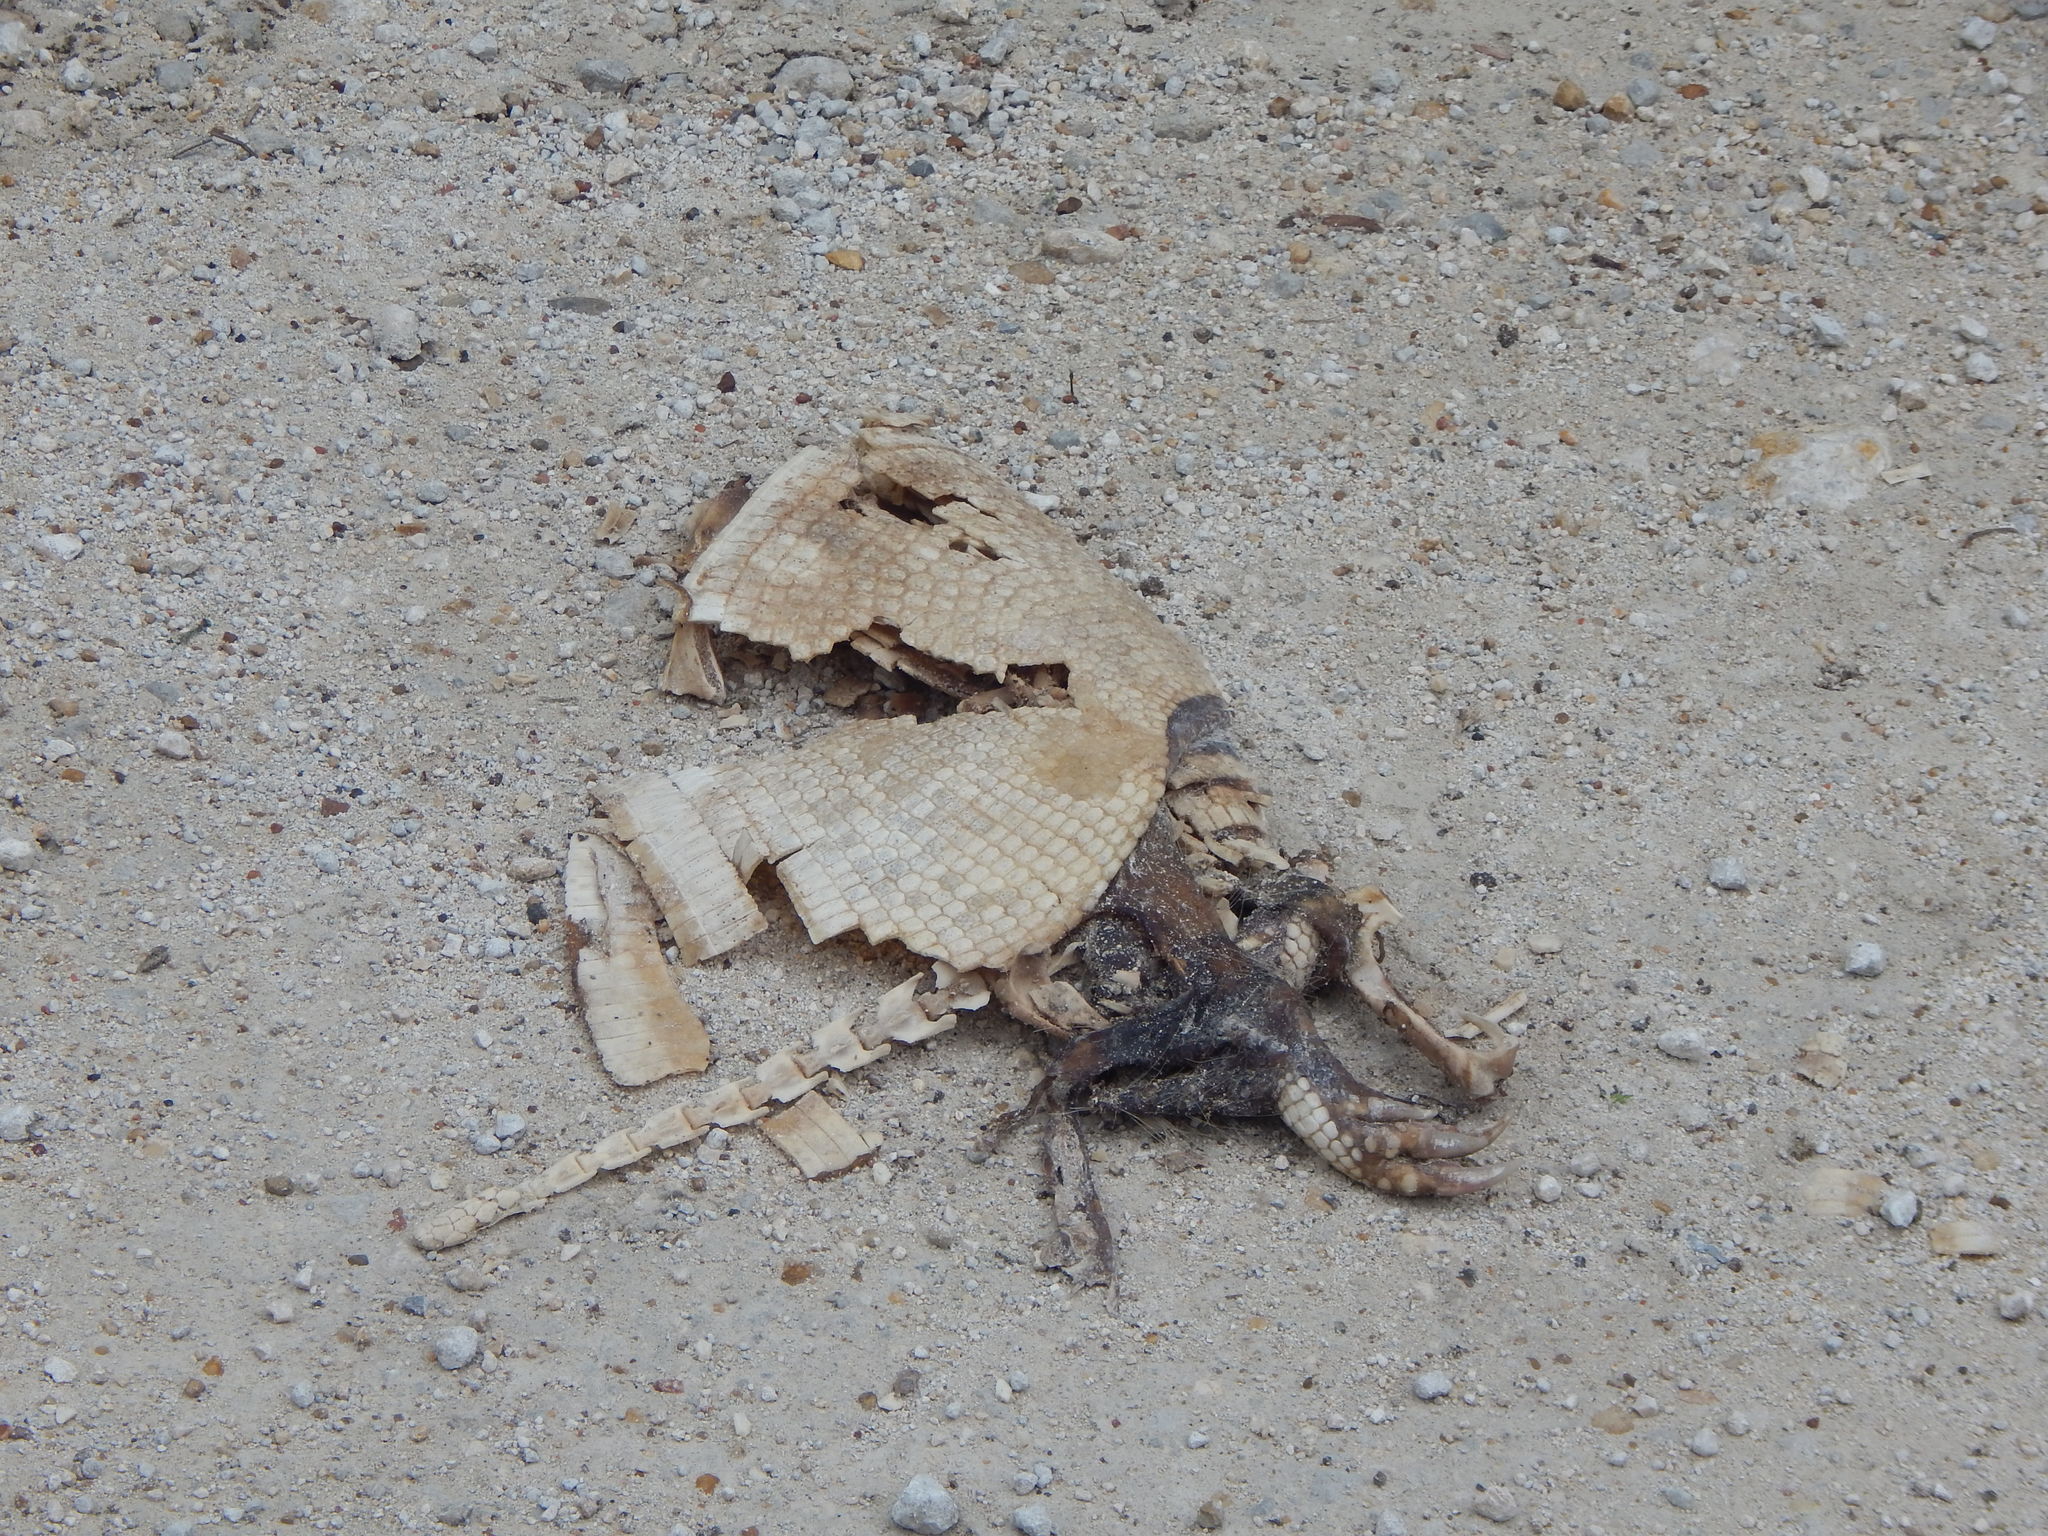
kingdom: Animalia
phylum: Chordata
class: Mammalia
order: Cingulata
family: Dasypodidae
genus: Dasypus
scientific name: Dasypus novemcinctus
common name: Nine-banded armadillo
